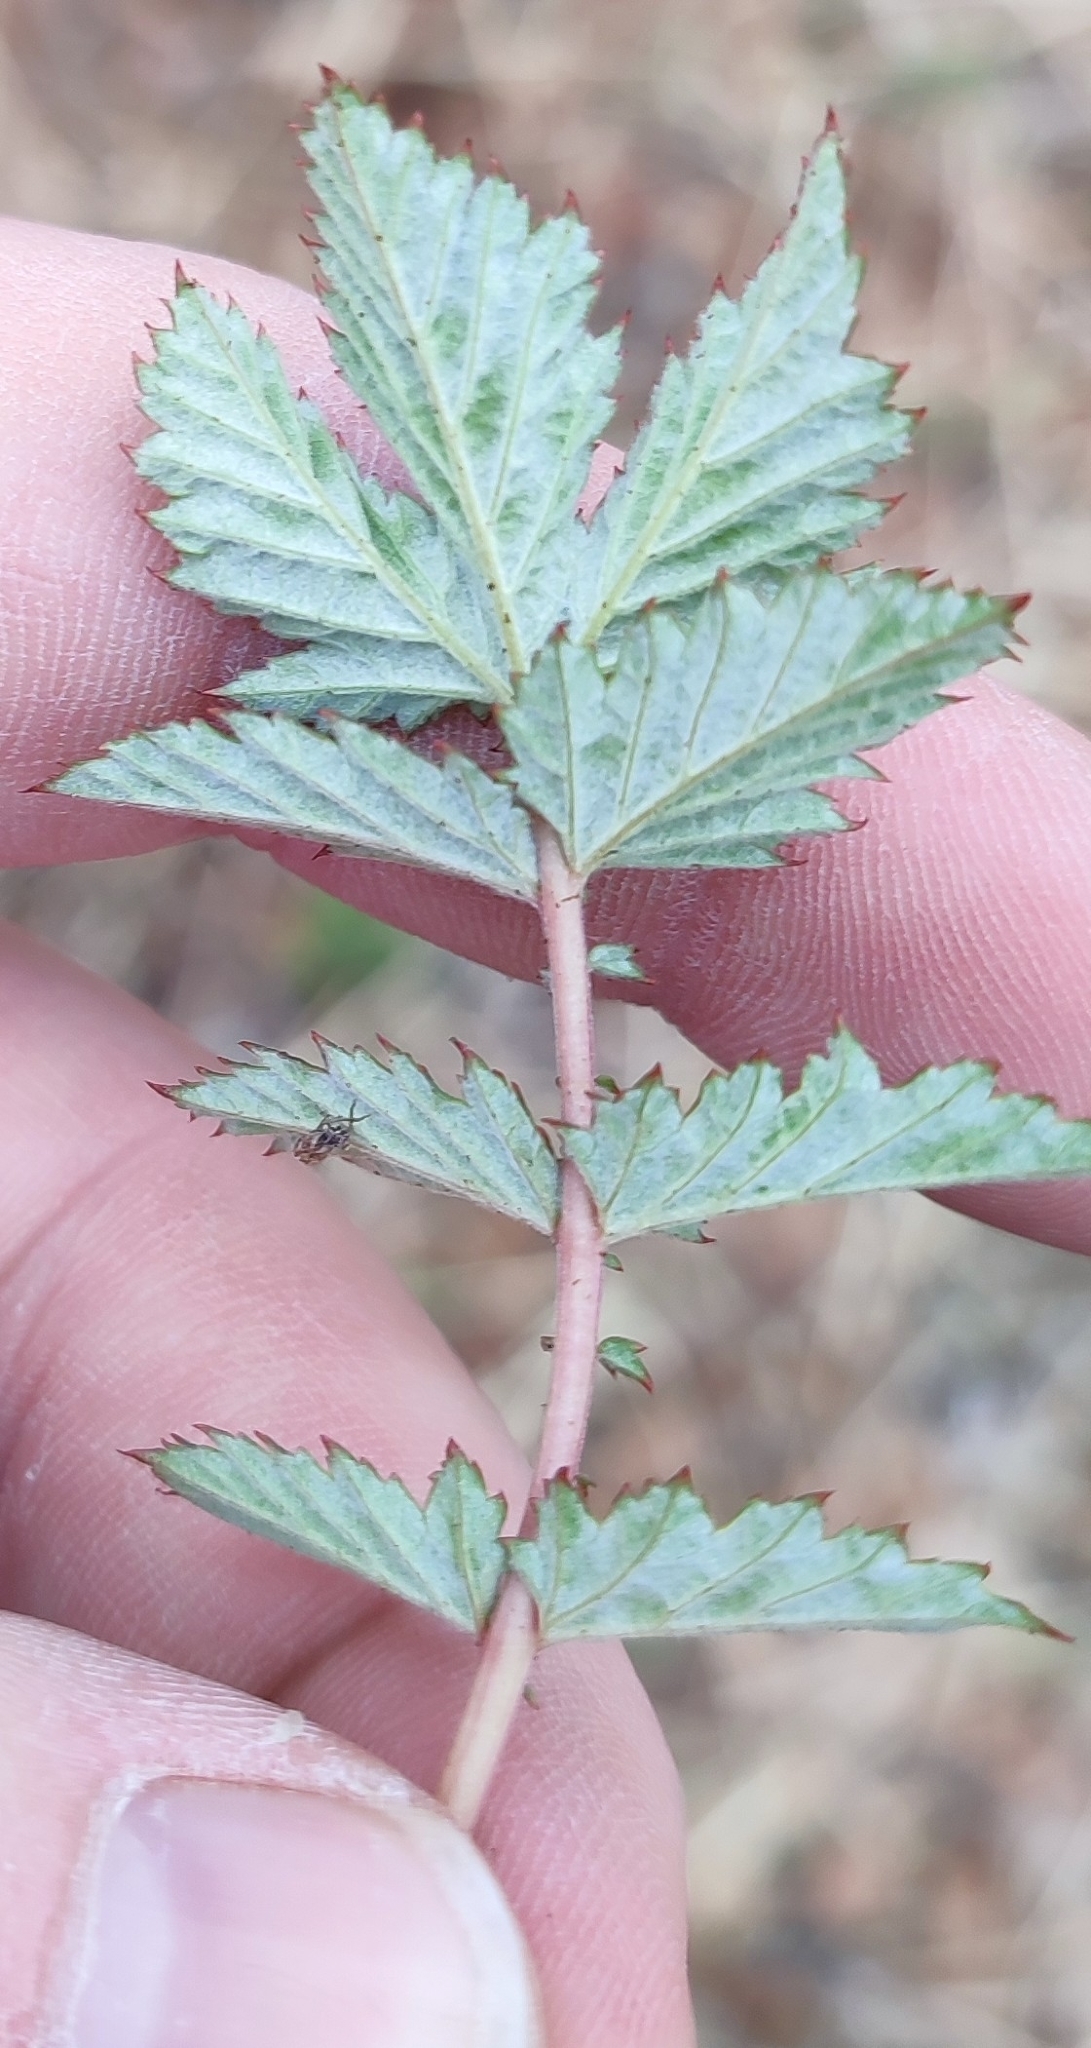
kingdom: Plantae
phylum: Tracheophyta
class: Magnoliopsida
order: Rosales
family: Rosaceae
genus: Filipendula
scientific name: Filipendula ulmaria
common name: Meadowsweet
